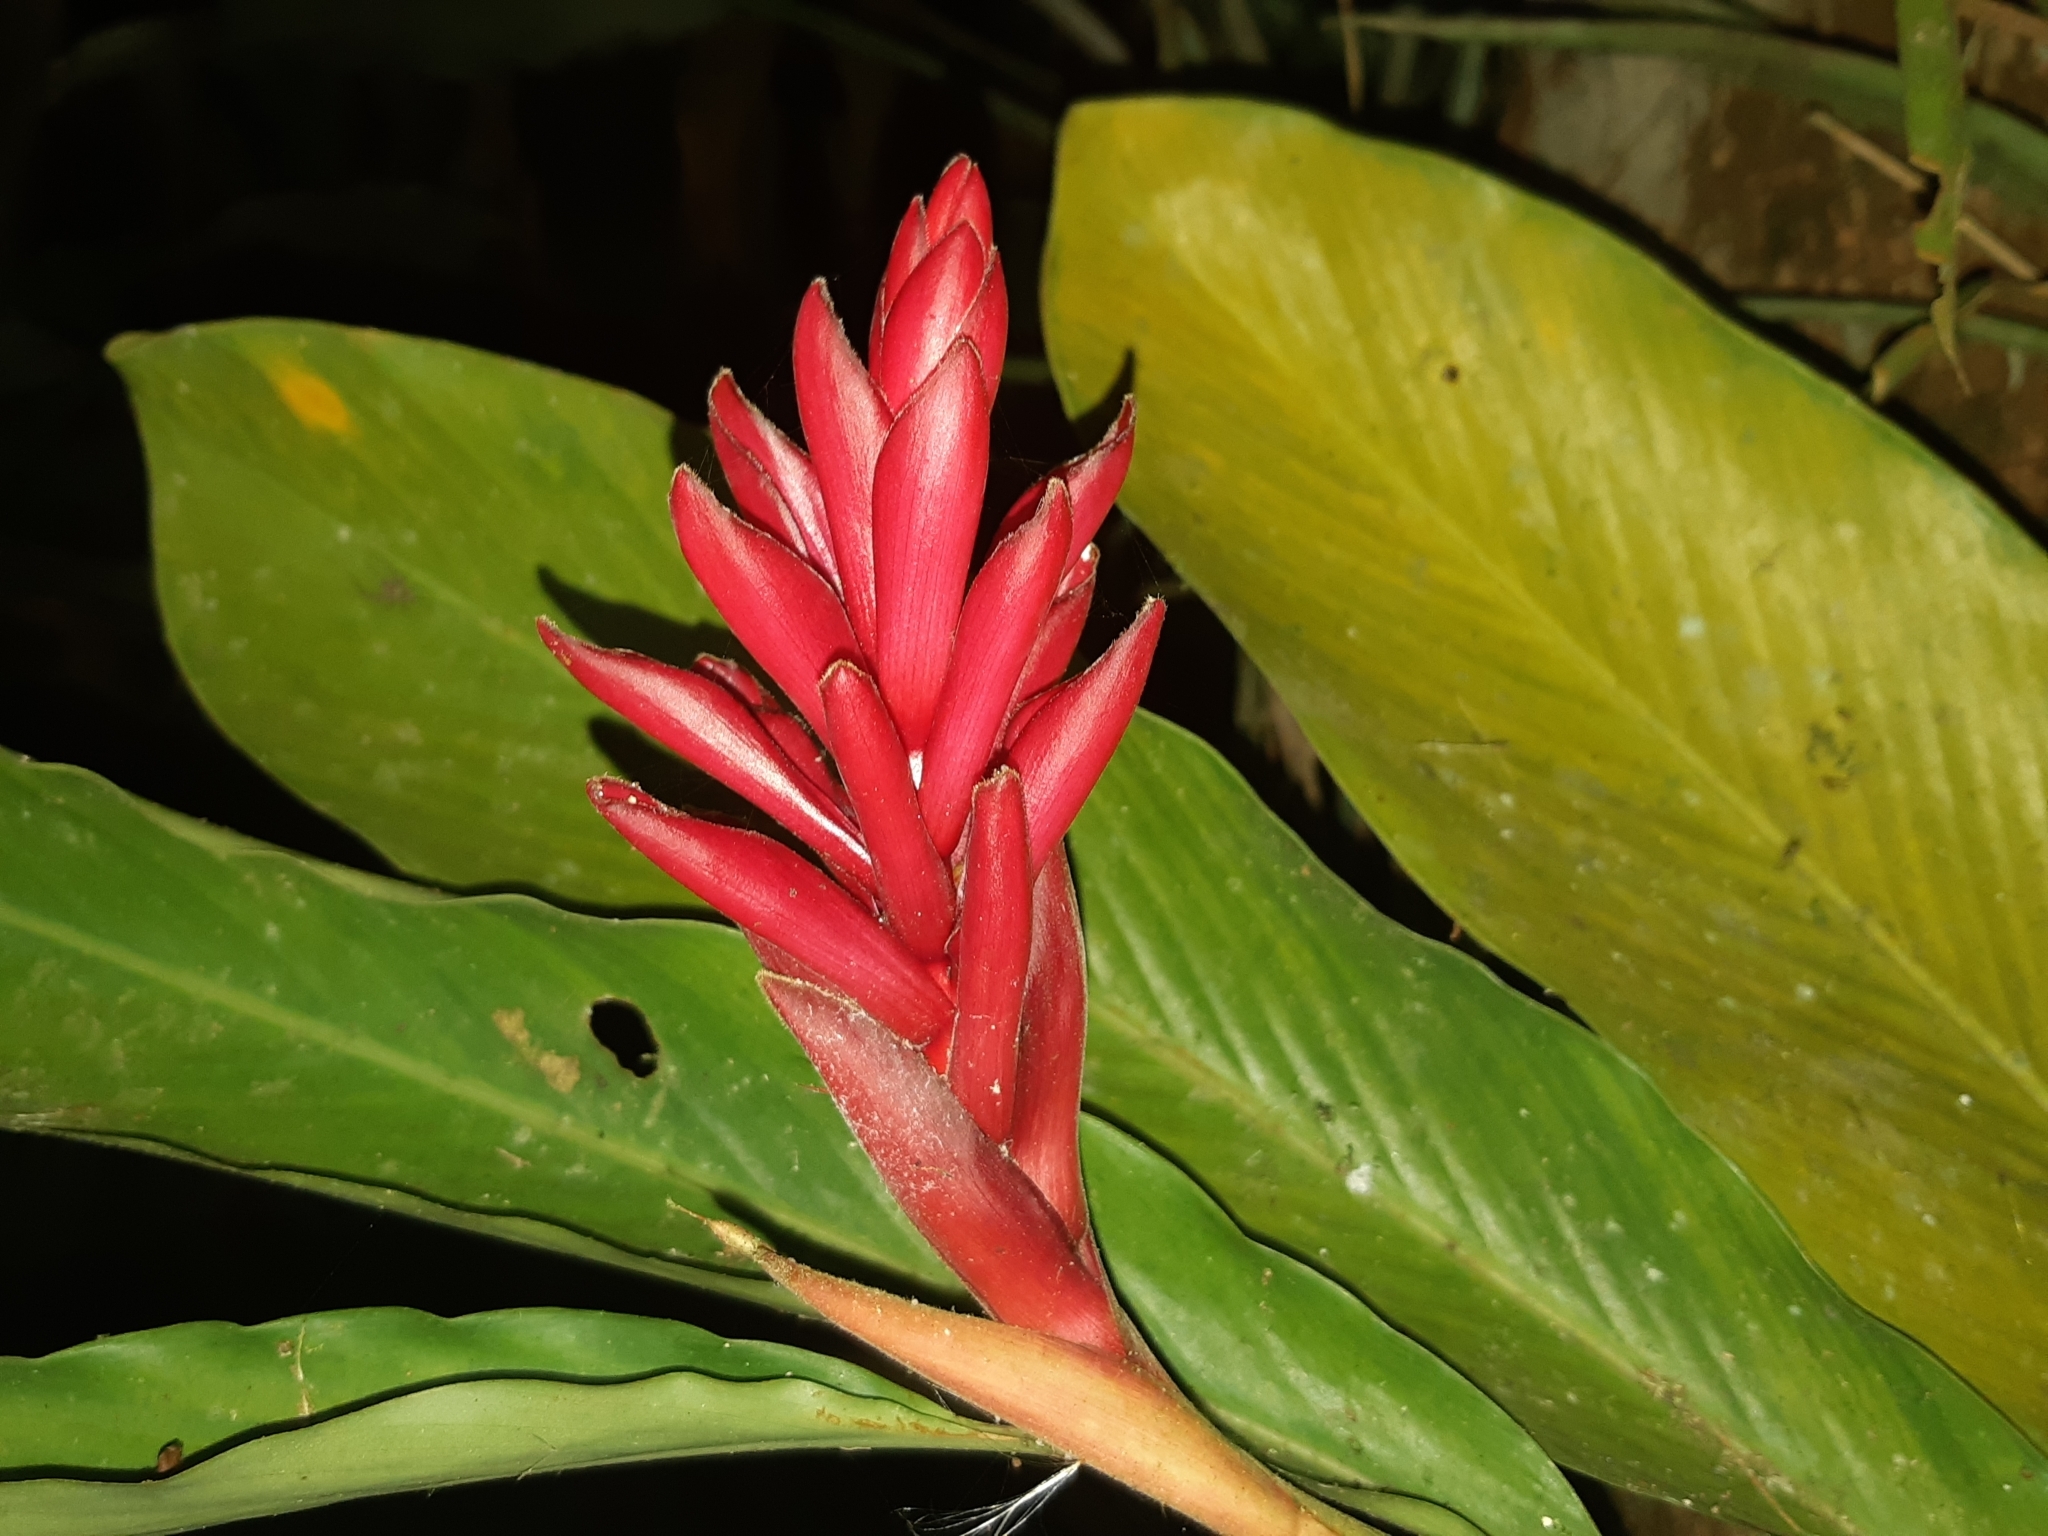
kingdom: Plantae
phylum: Tracheophyta
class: Liliopsida
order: Zingiberales
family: Zingiberaceae
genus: Alpinia
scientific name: Alpinia purpurata
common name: Red ginger
